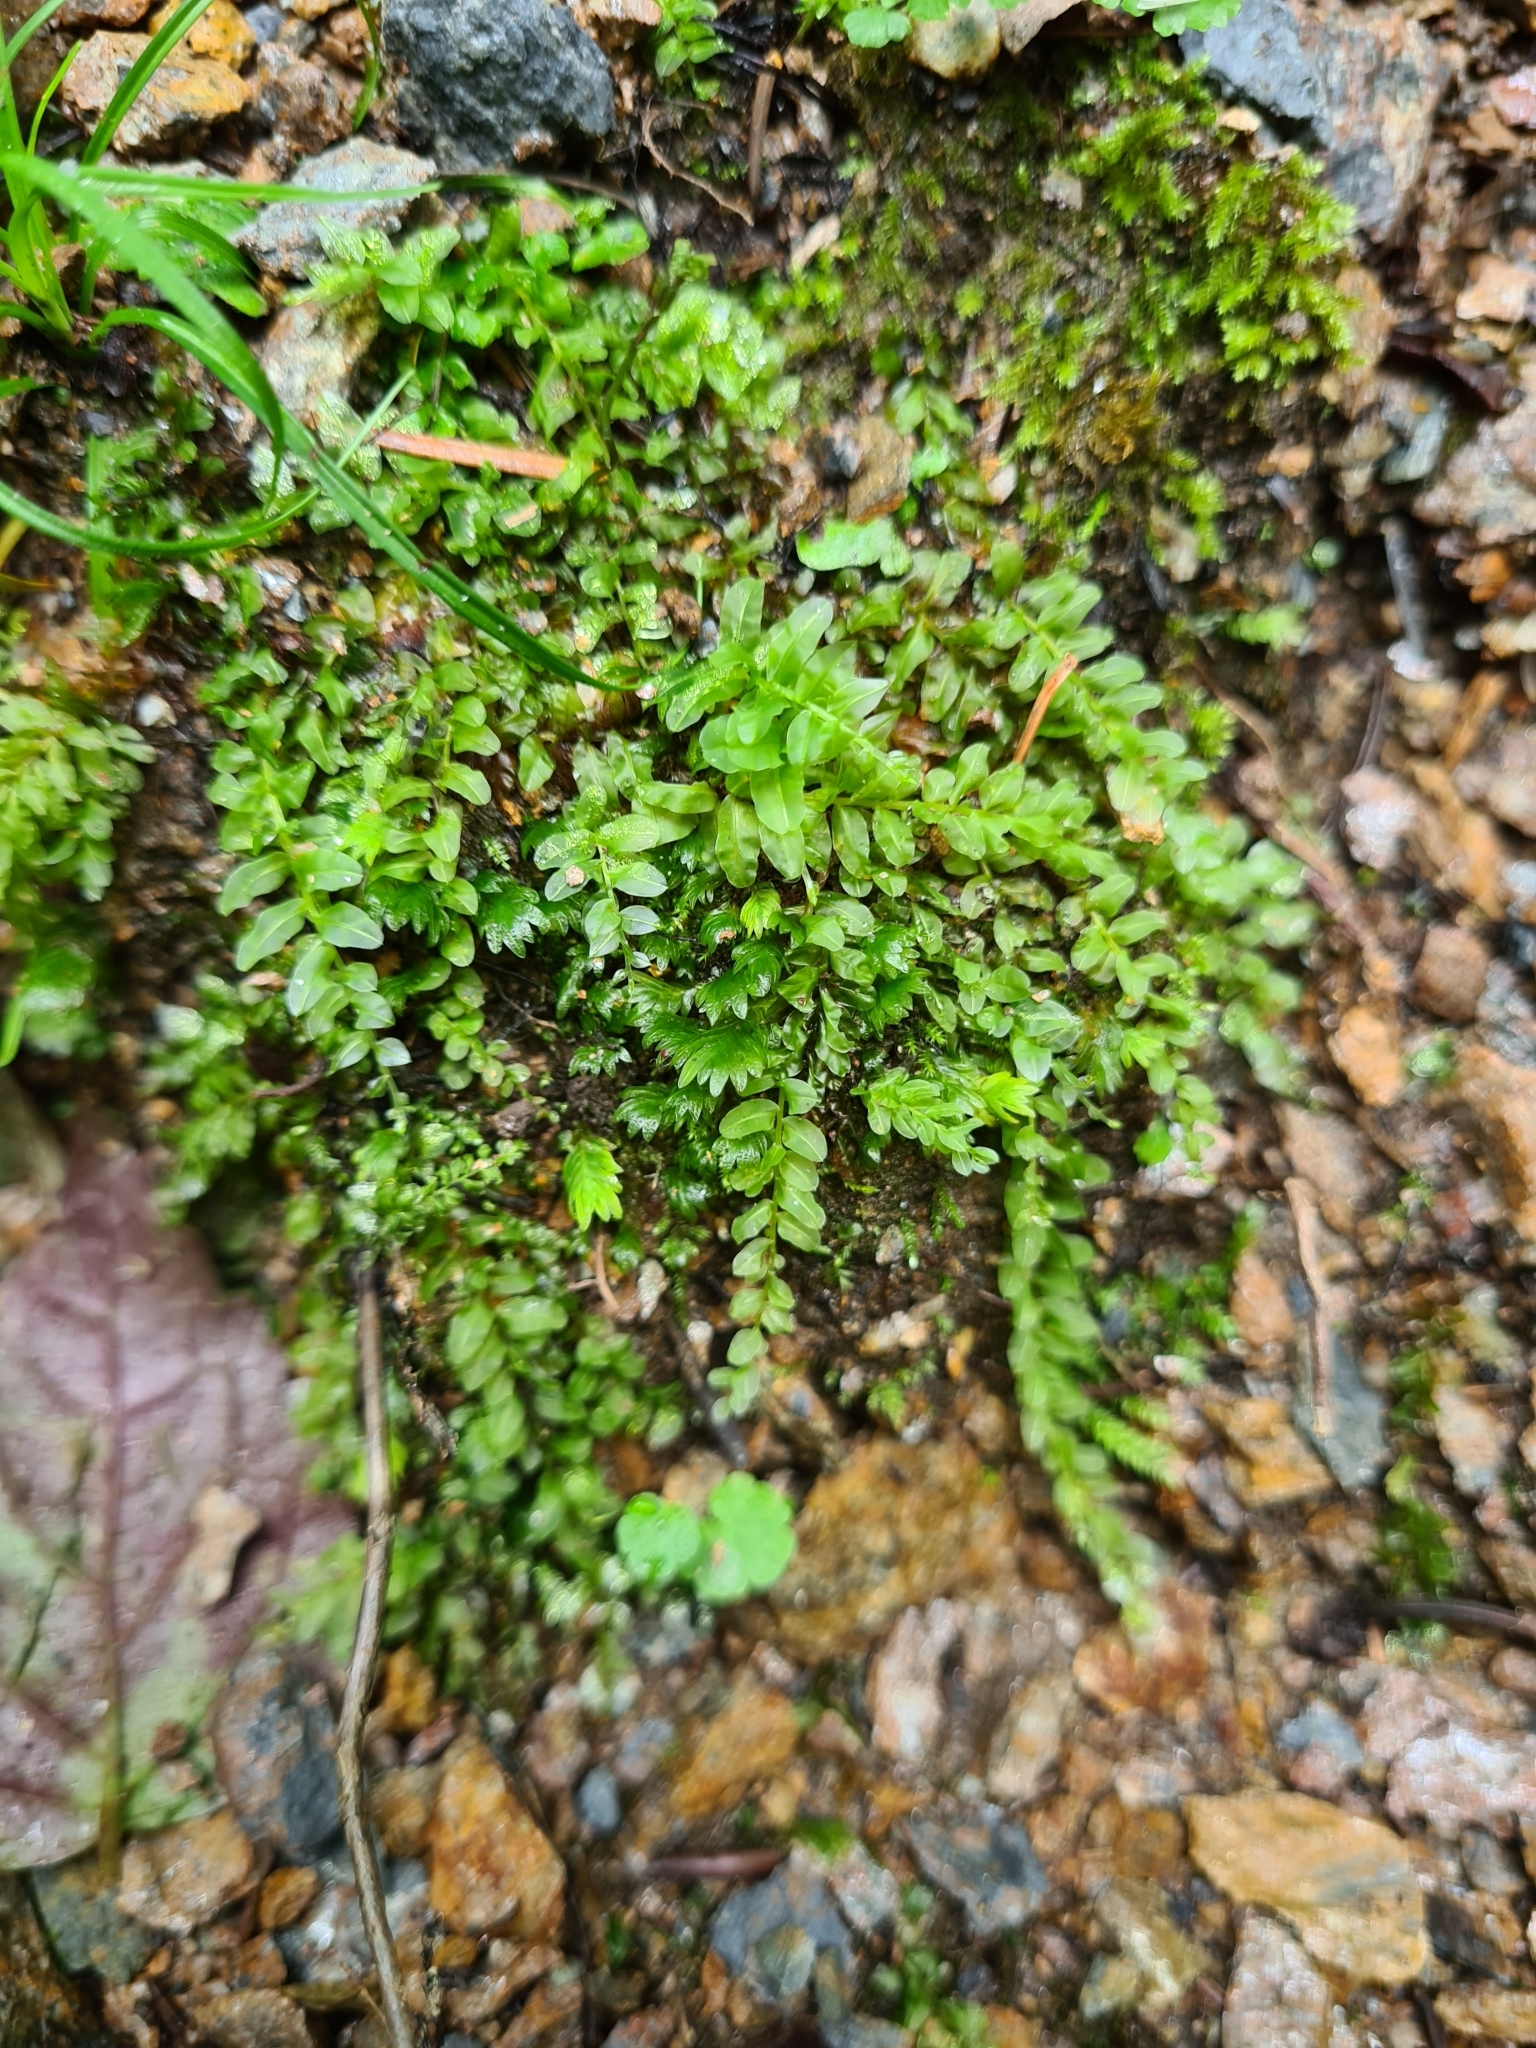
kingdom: Plantae
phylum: Bryophyta
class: Bryopsida
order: Bryales
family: Mniaceae
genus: Plagiomnium
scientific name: Plagiomnium undulatum
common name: Hart's-tongue thyme-moss
